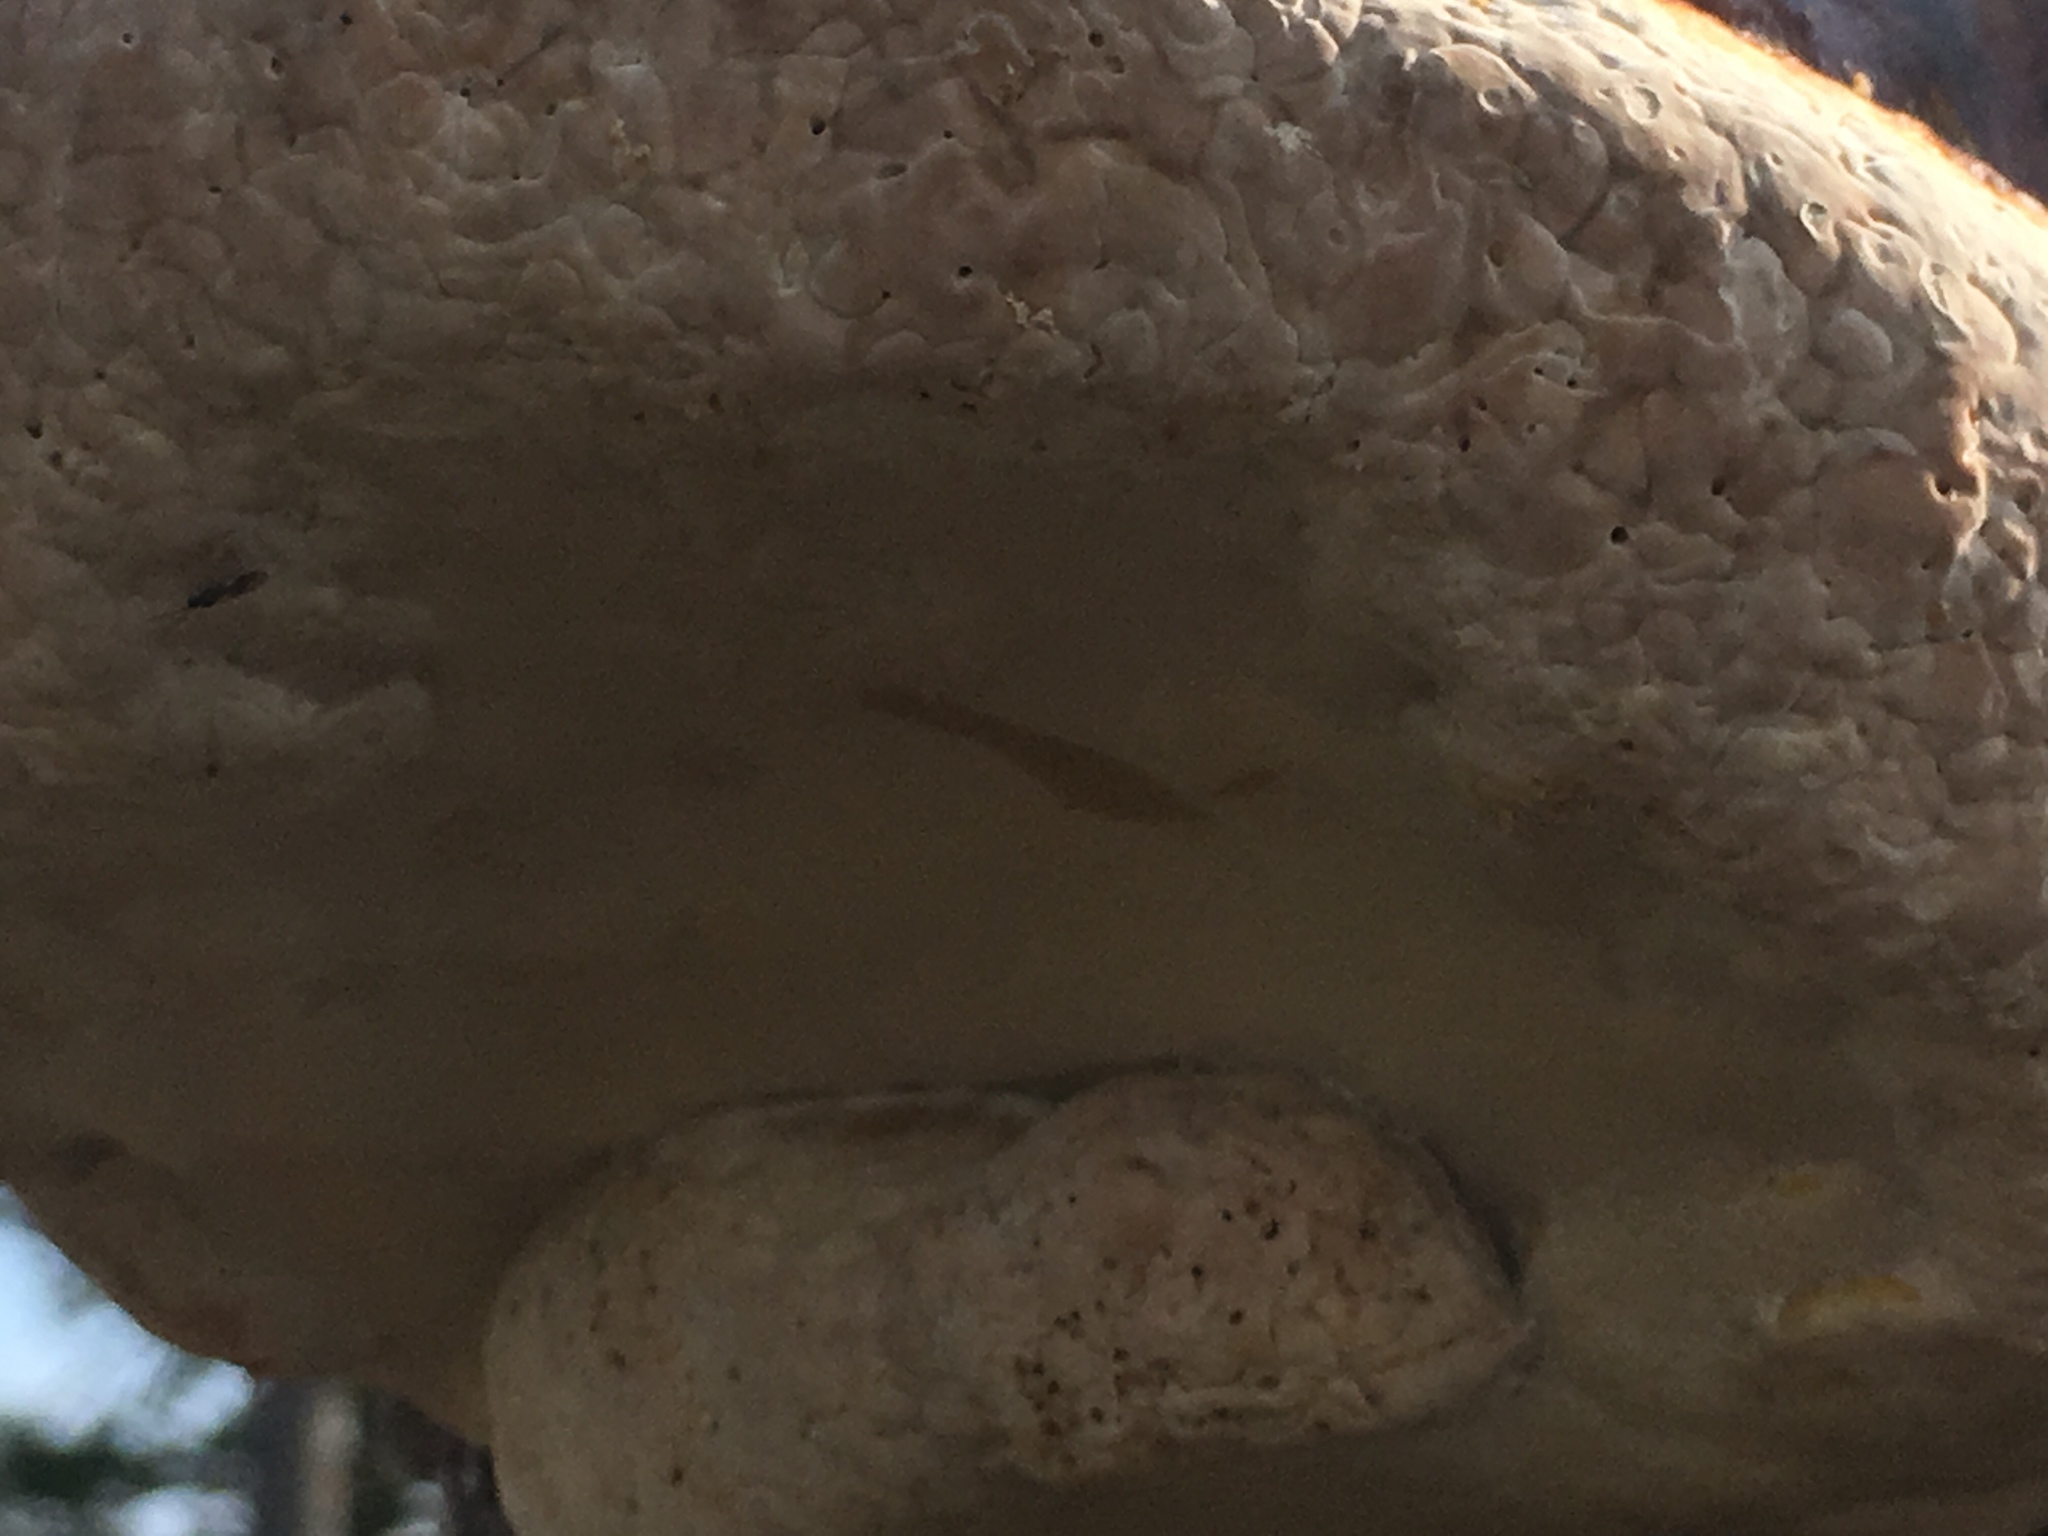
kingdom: Fungi
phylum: Basidiomycota
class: Agaricomycetes
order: Polyporales
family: Fomitopsidaceae
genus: Fomitopsis
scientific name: Fomitopsis mounceae
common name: Northern red belt
